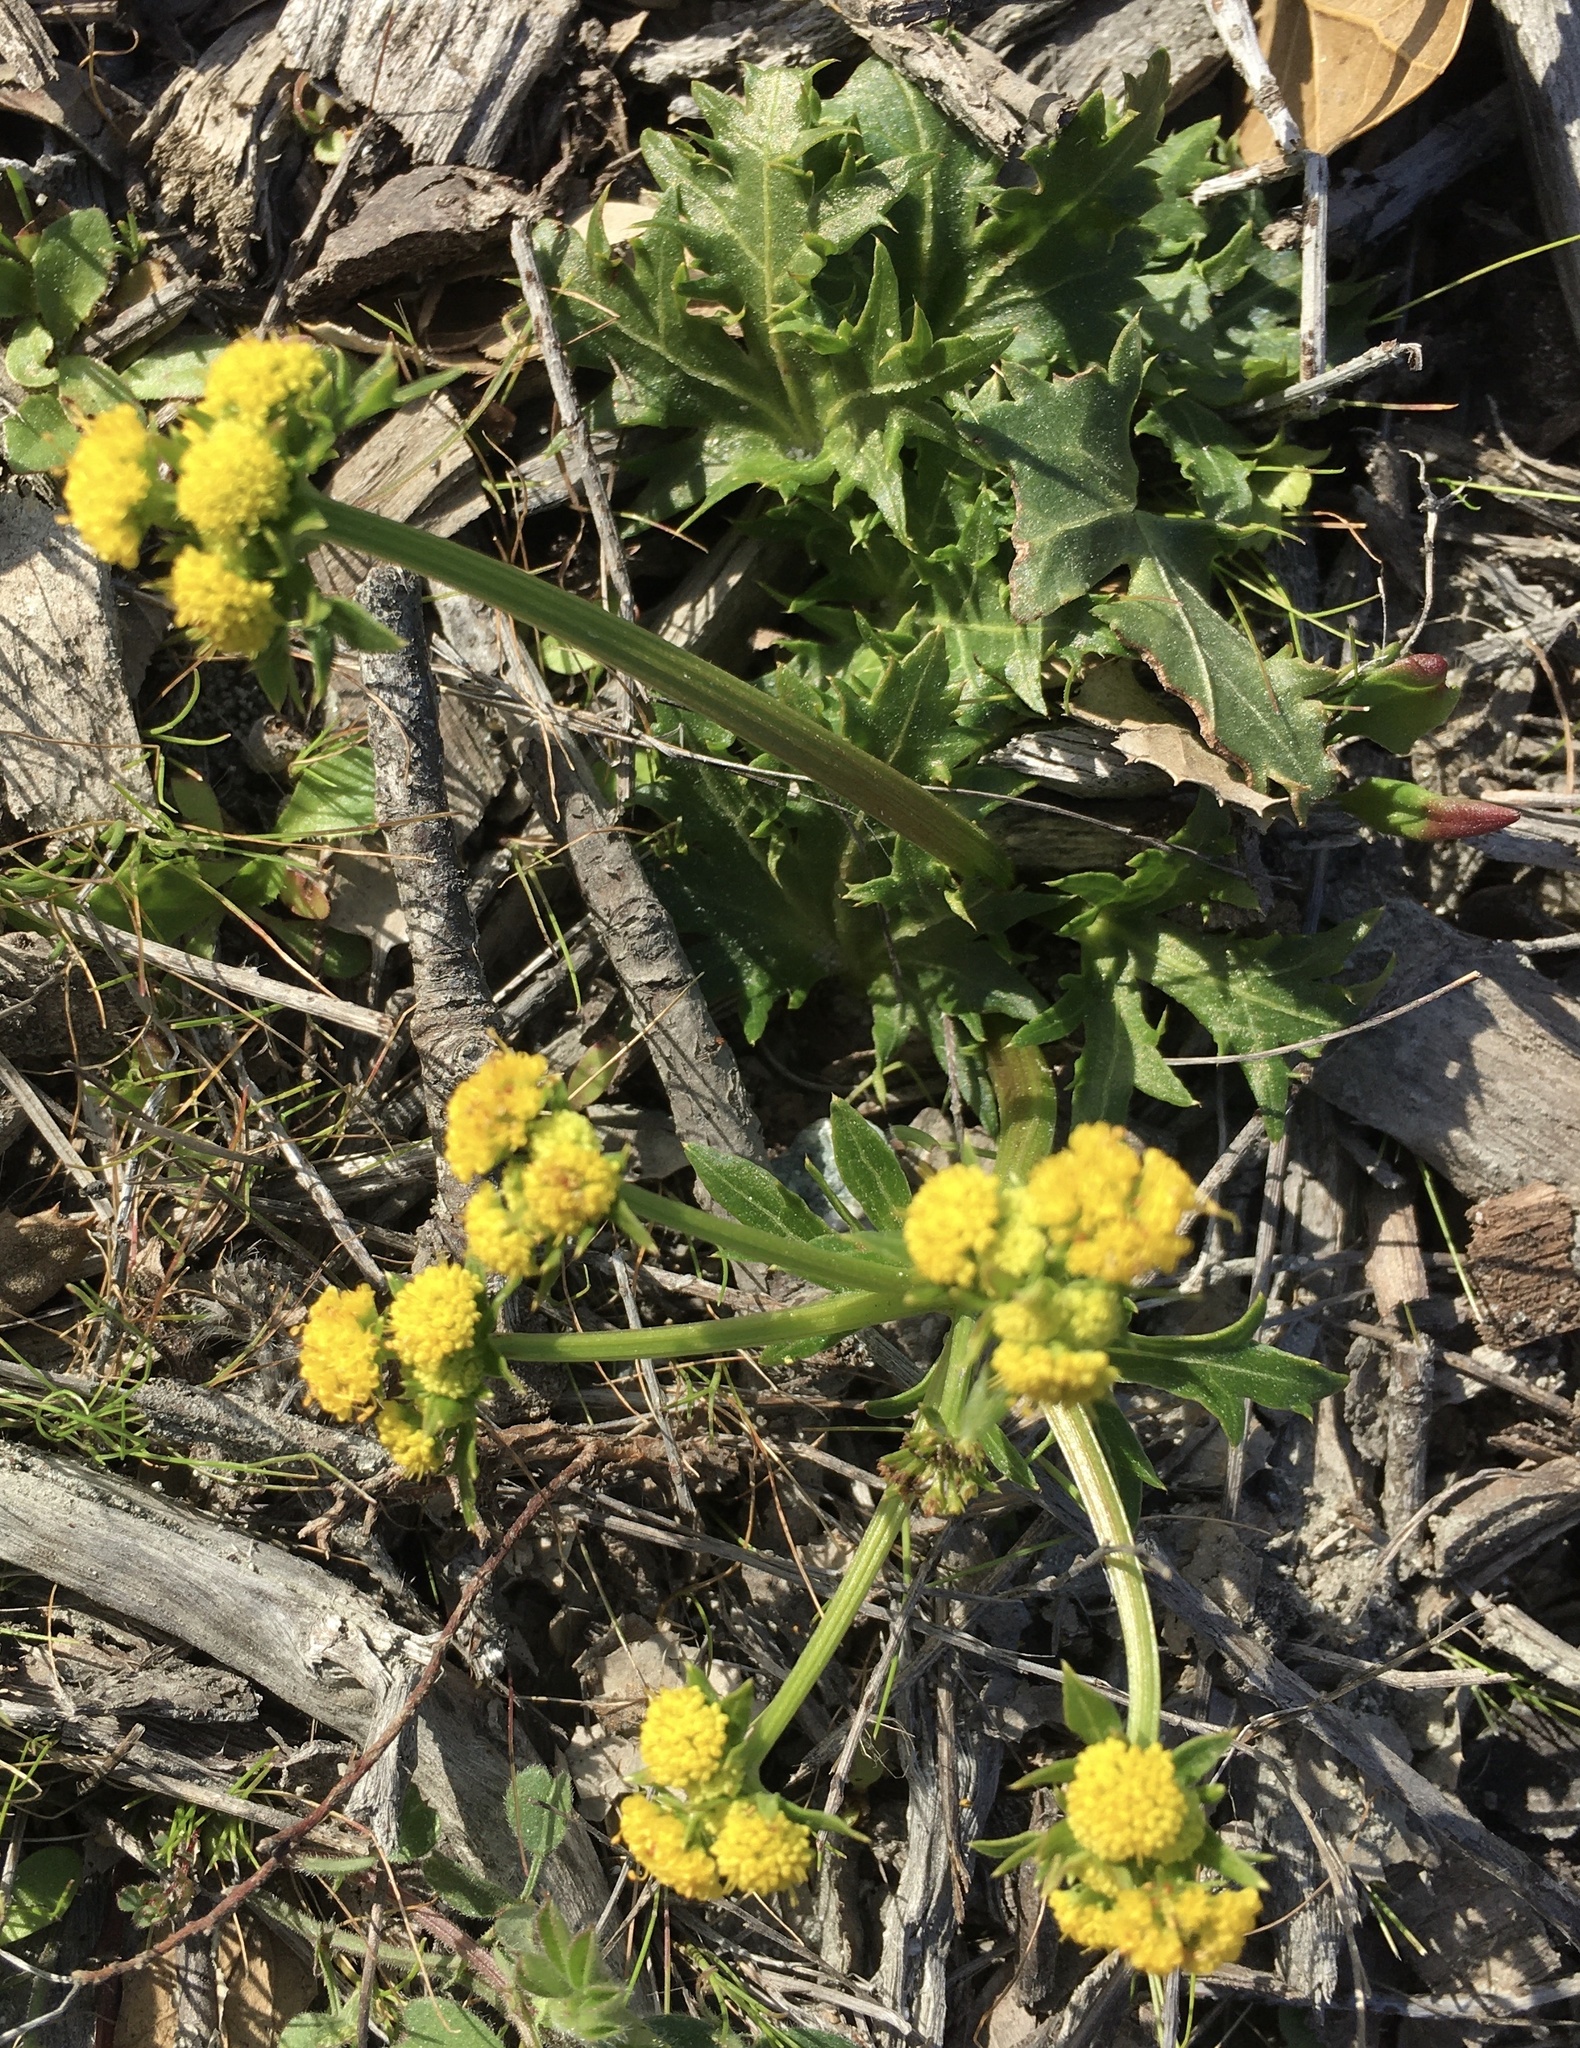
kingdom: Plantae
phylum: Tracheophyta
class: Magnoliopsida
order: Apiales
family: Apiaceae
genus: Sanicula
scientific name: Sanicula laciniata
